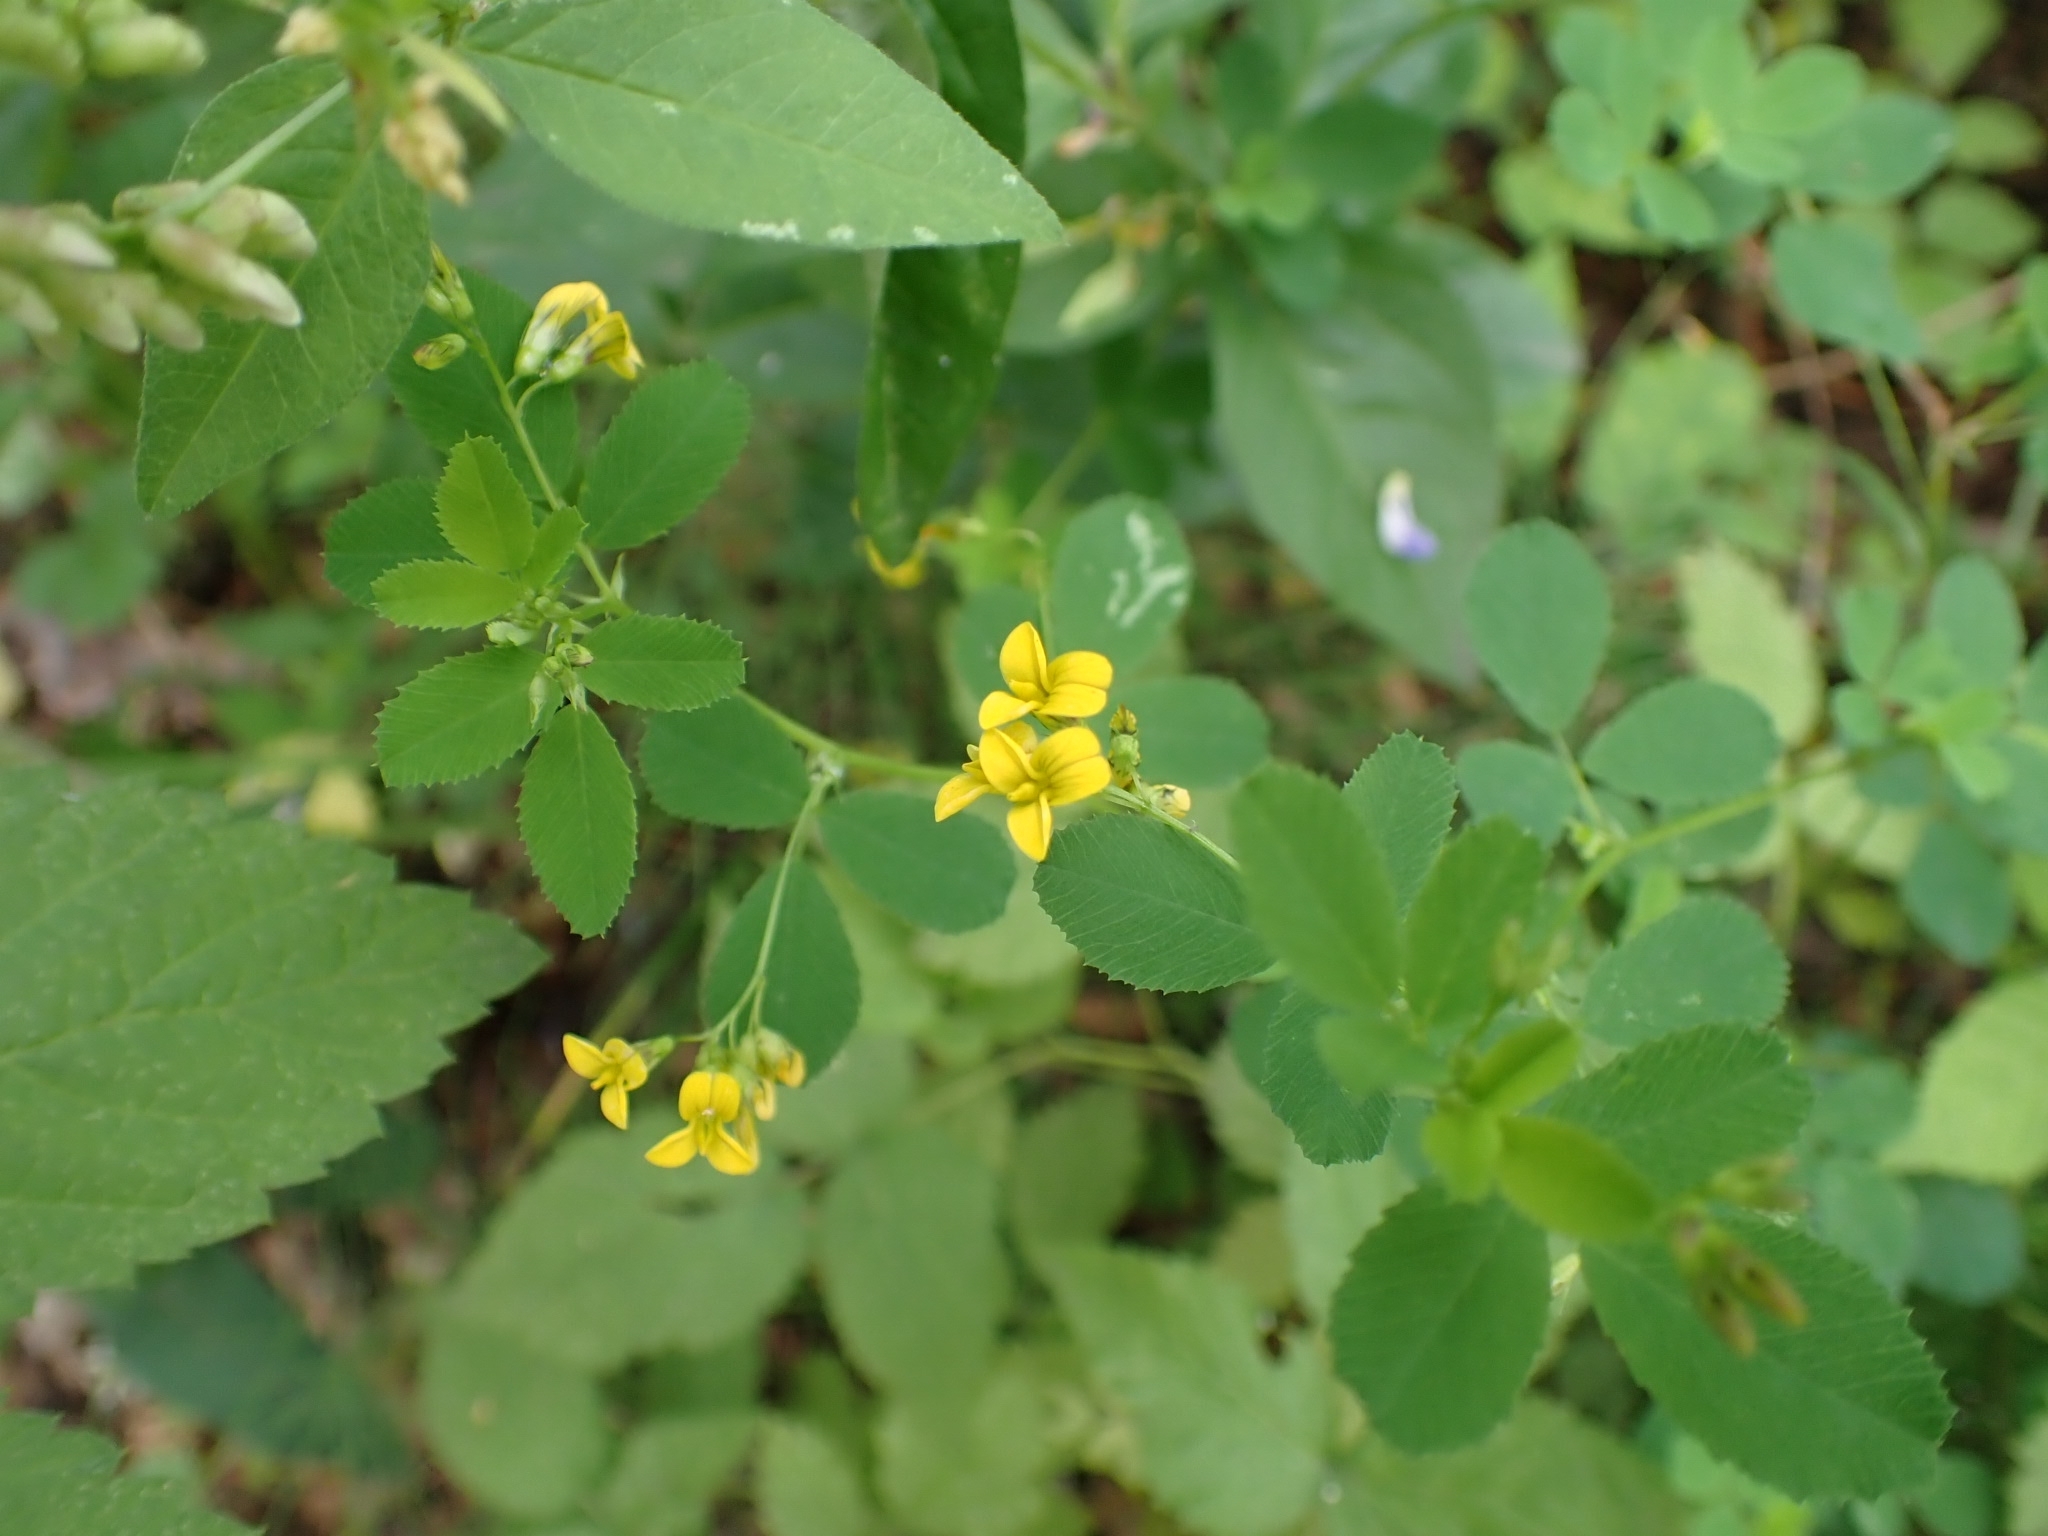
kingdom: Plantae
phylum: Tracheophyta
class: Magnoliopsida
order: Fabales
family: Fabaceae
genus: Medicago
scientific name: Medicago platycarpos
